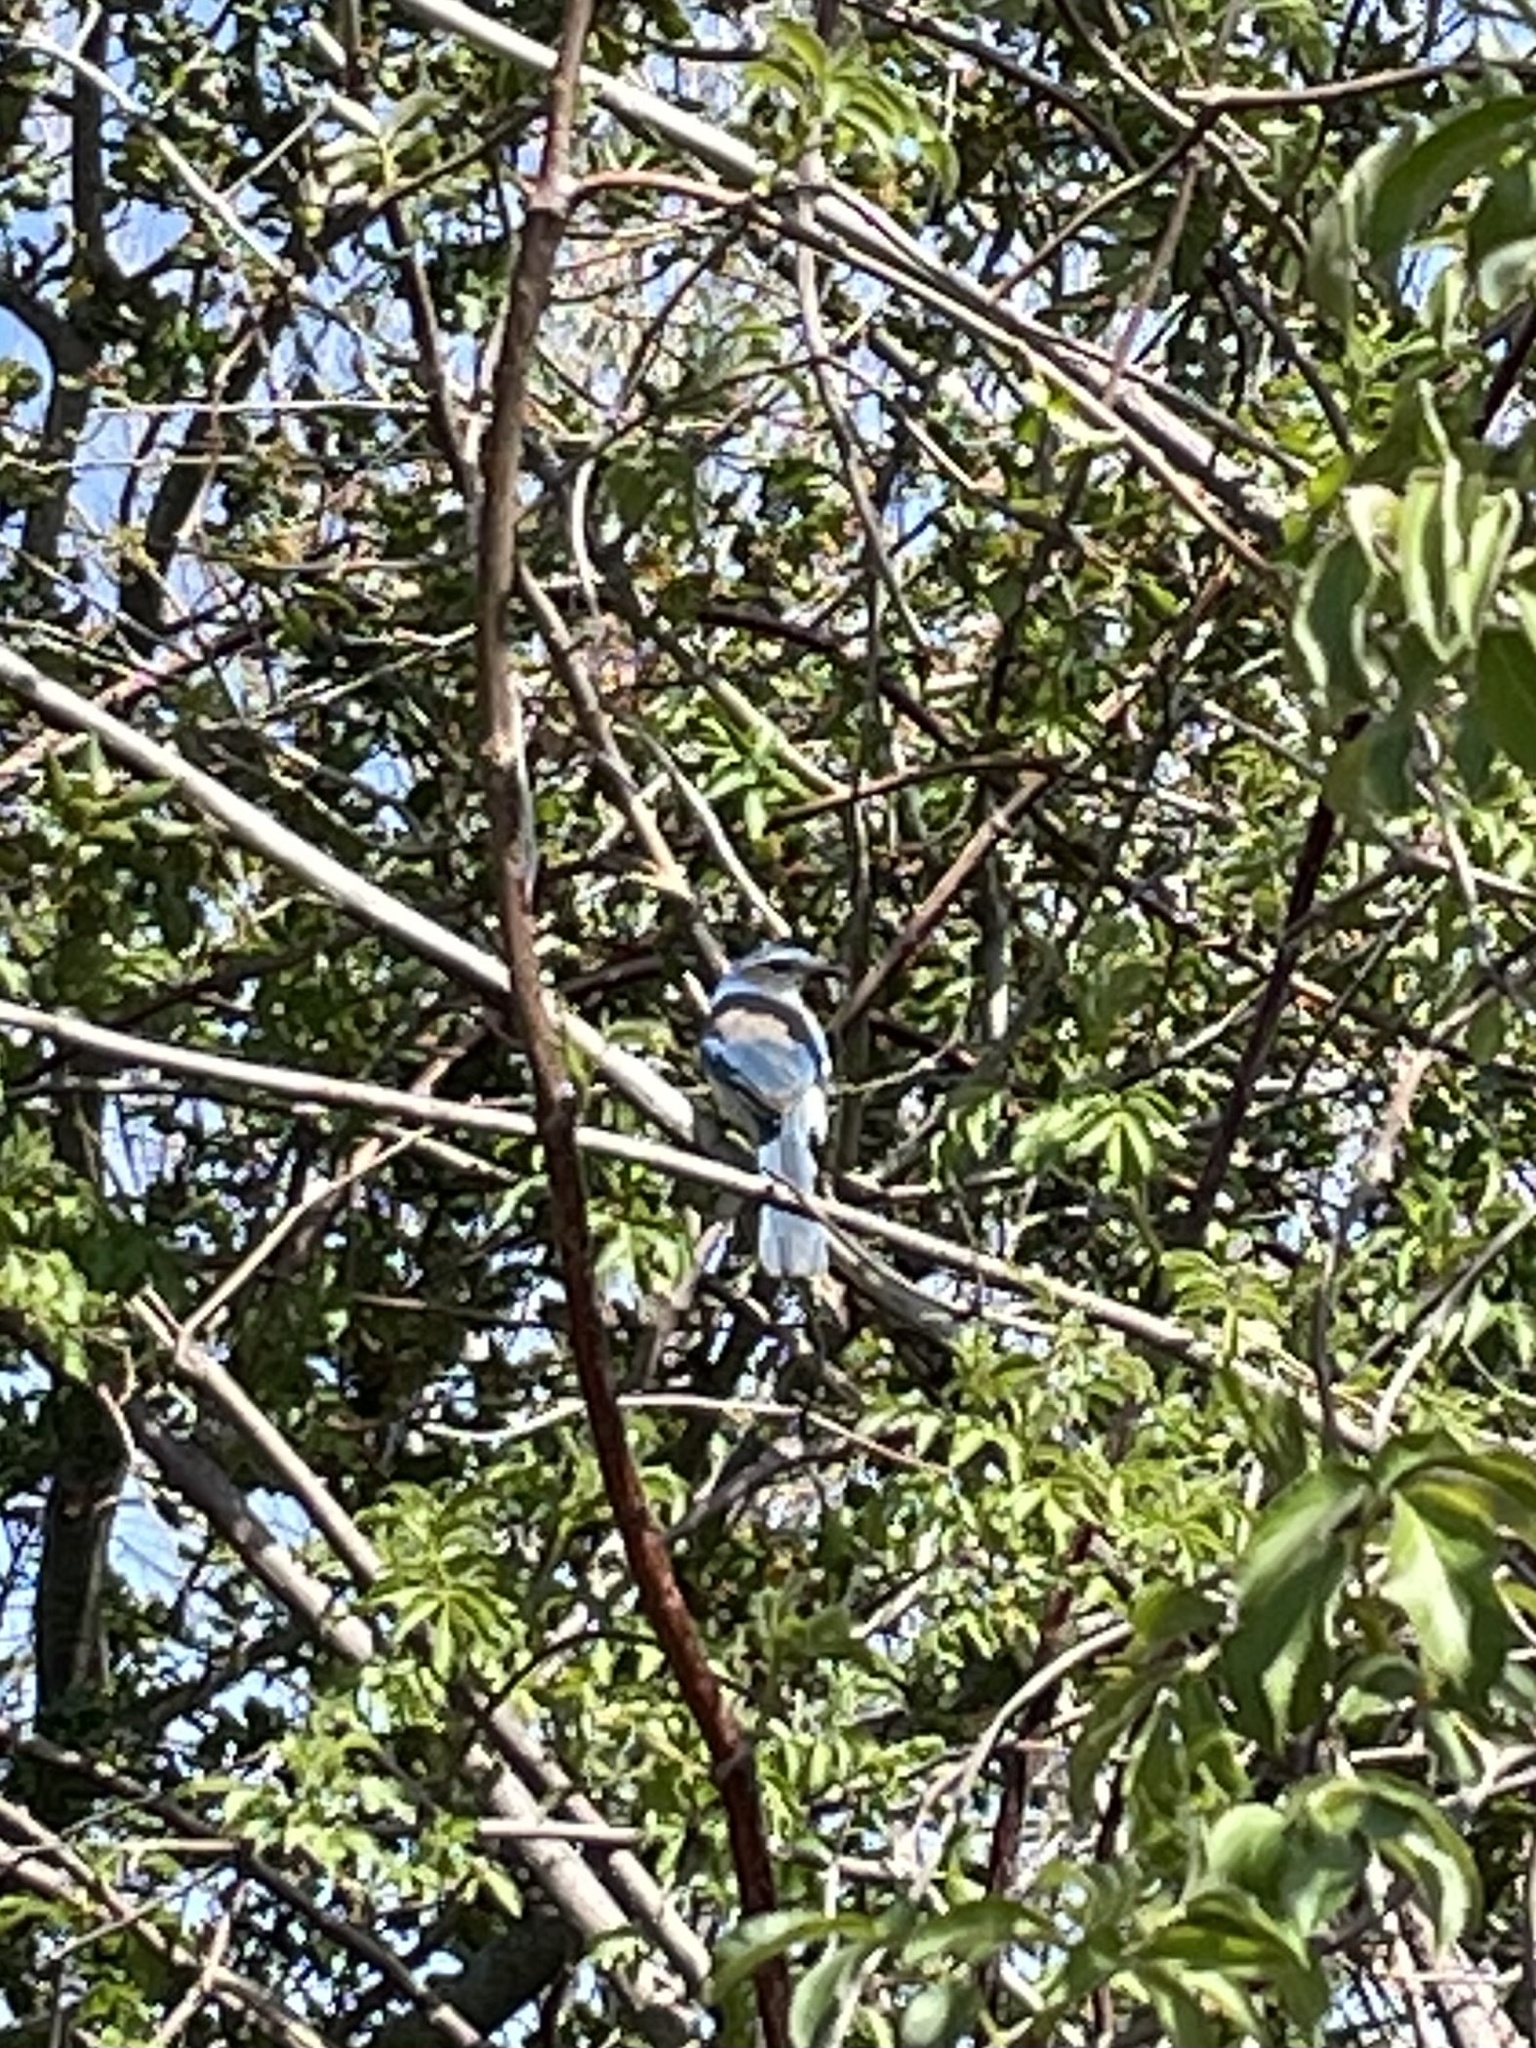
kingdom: Animalia
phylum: Chordata
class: Aves
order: Passeriformes
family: Corvidae
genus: Aphelocoma
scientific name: Aphelocoma californica
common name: California scrub-jay
